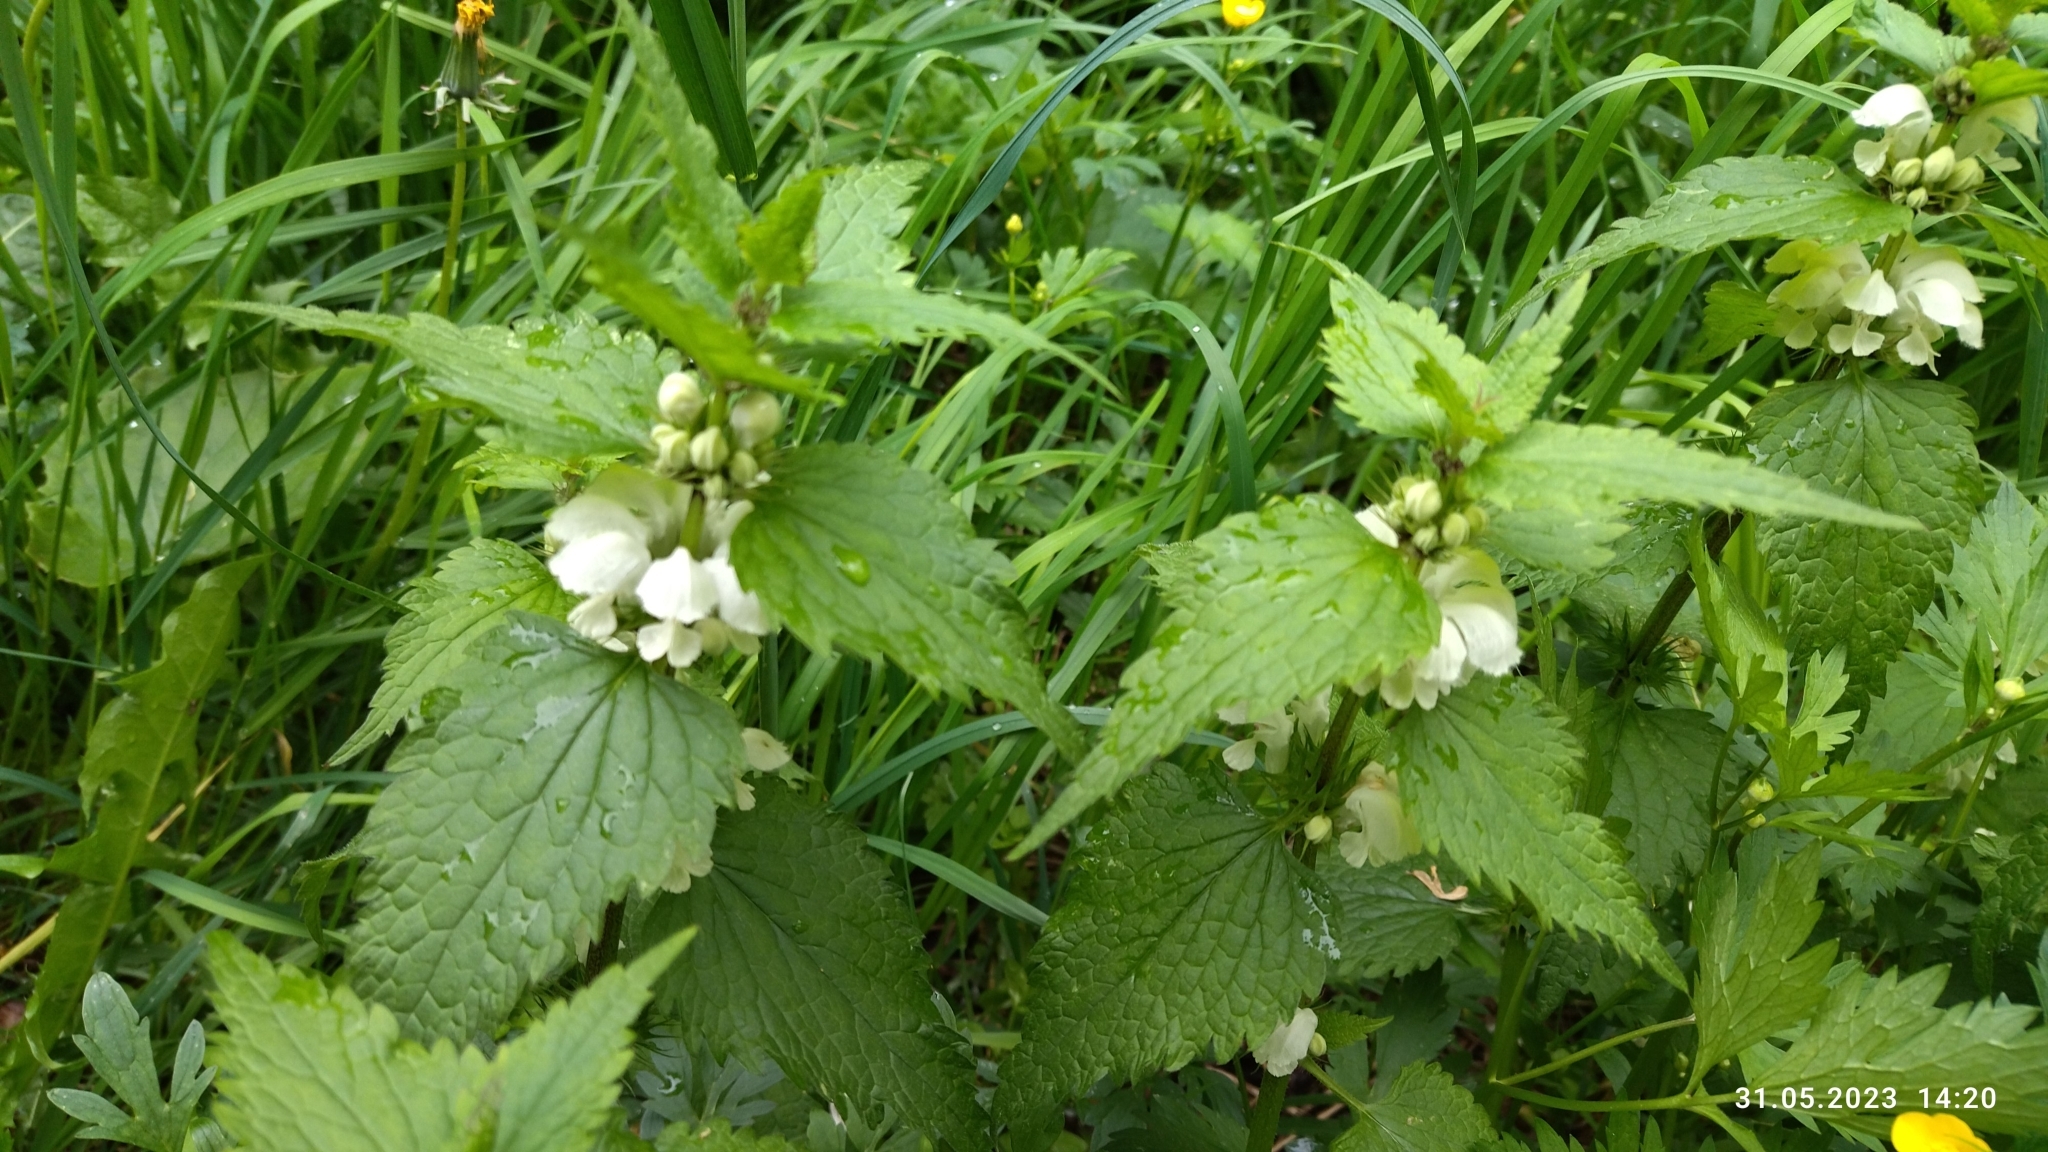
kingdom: Plantae
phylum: Tracheophyta
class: Magnoliopsida
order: Lamiales
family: Lamiaceae
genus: Lamium
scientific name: Lamium album
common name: White dead-nettle
